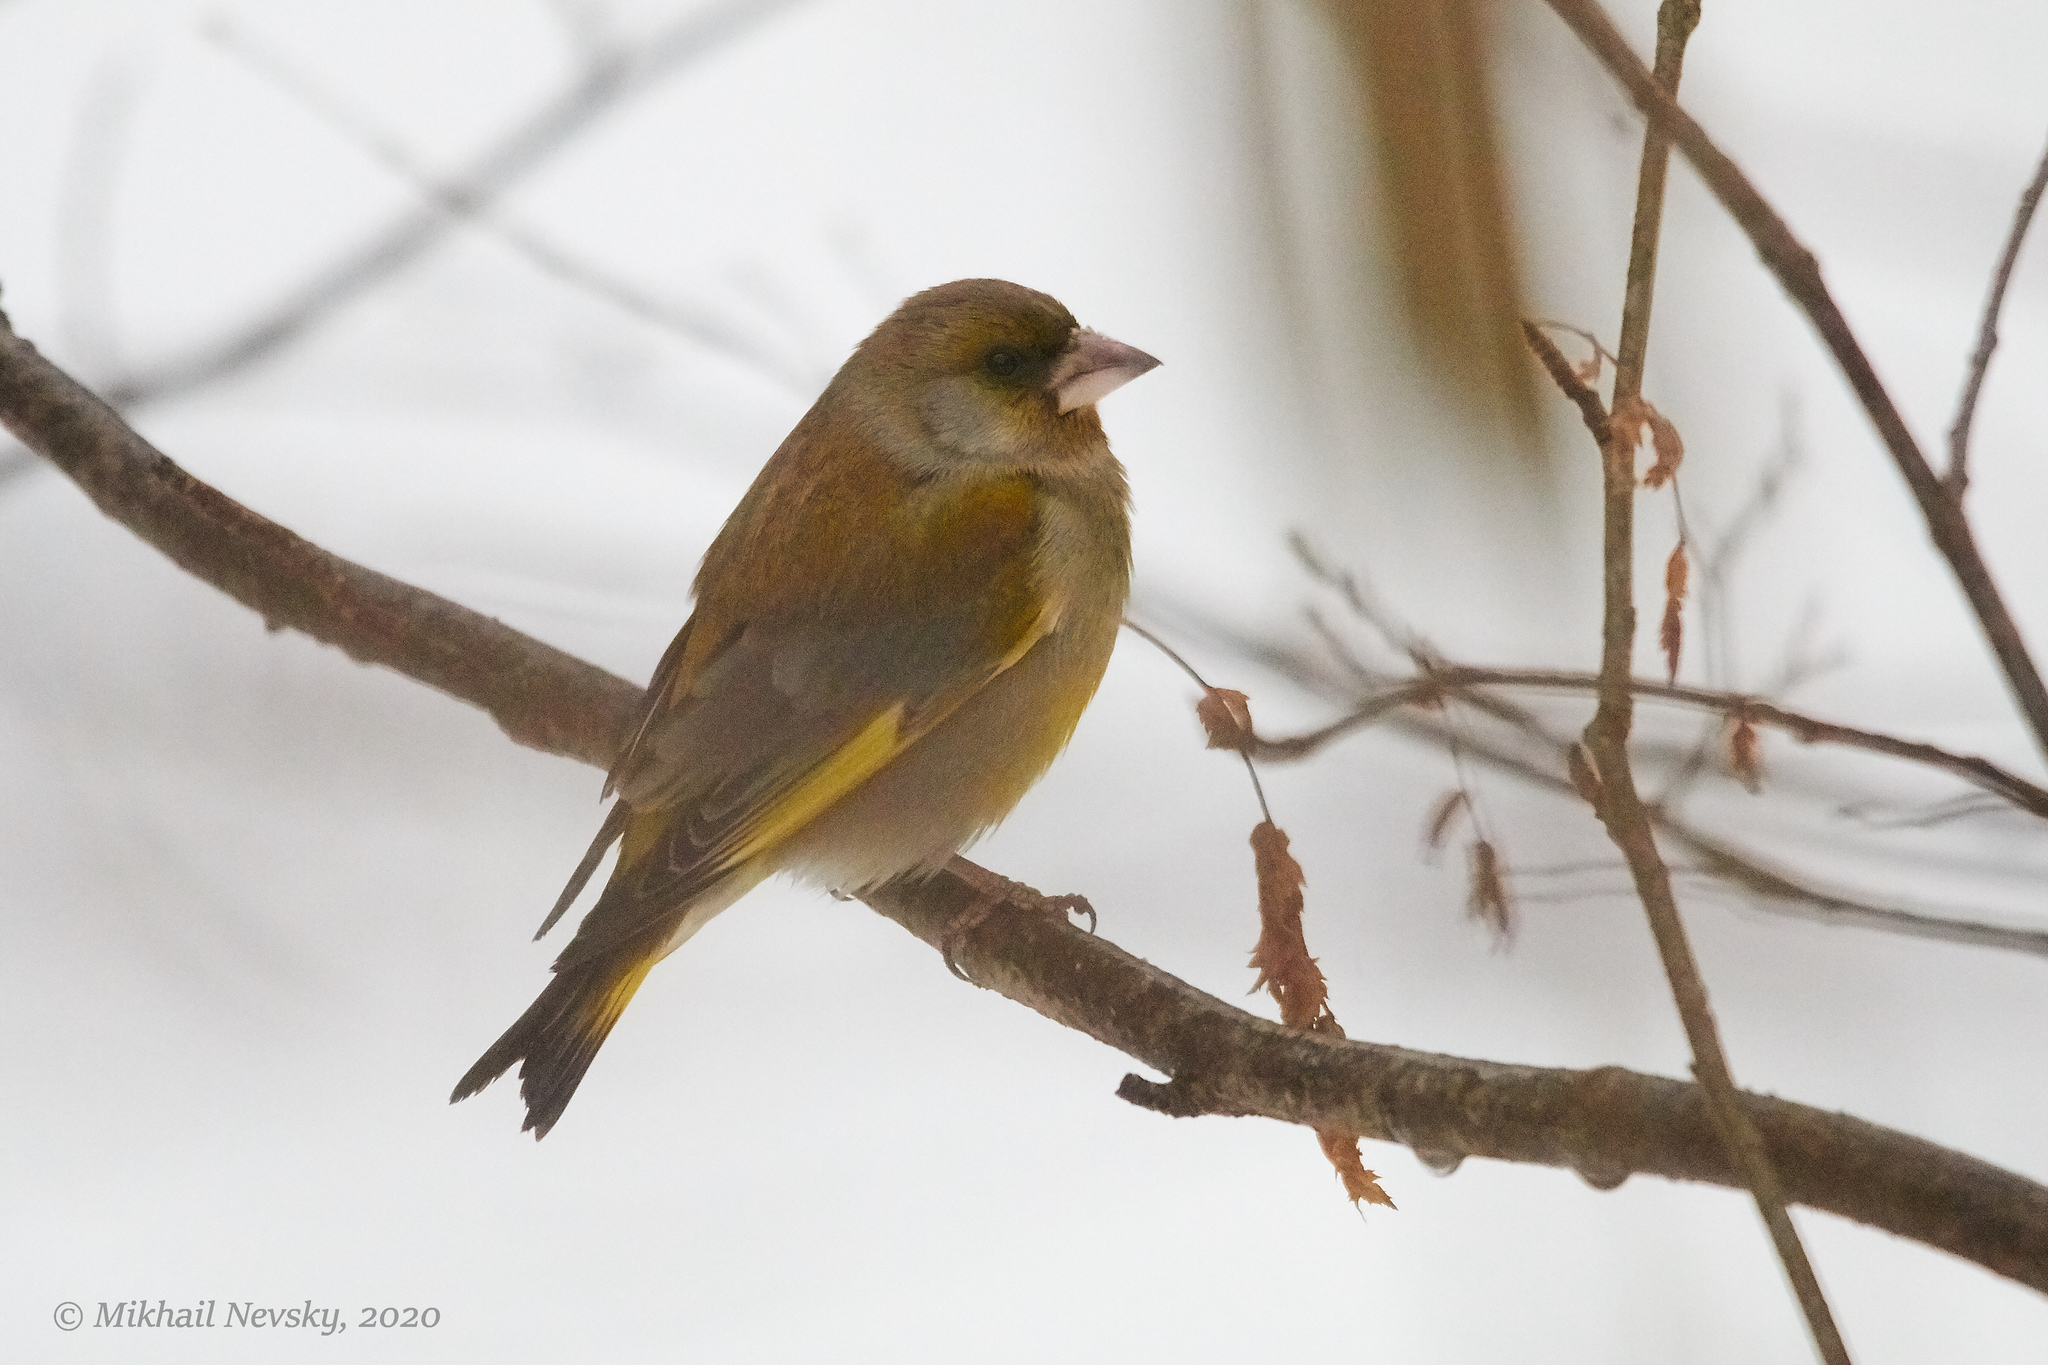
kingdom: Plantae
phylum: Tracheophyta
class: Liliopsida
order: Poales
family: Poaceae
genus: Chloris
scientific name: Chloris chloris
